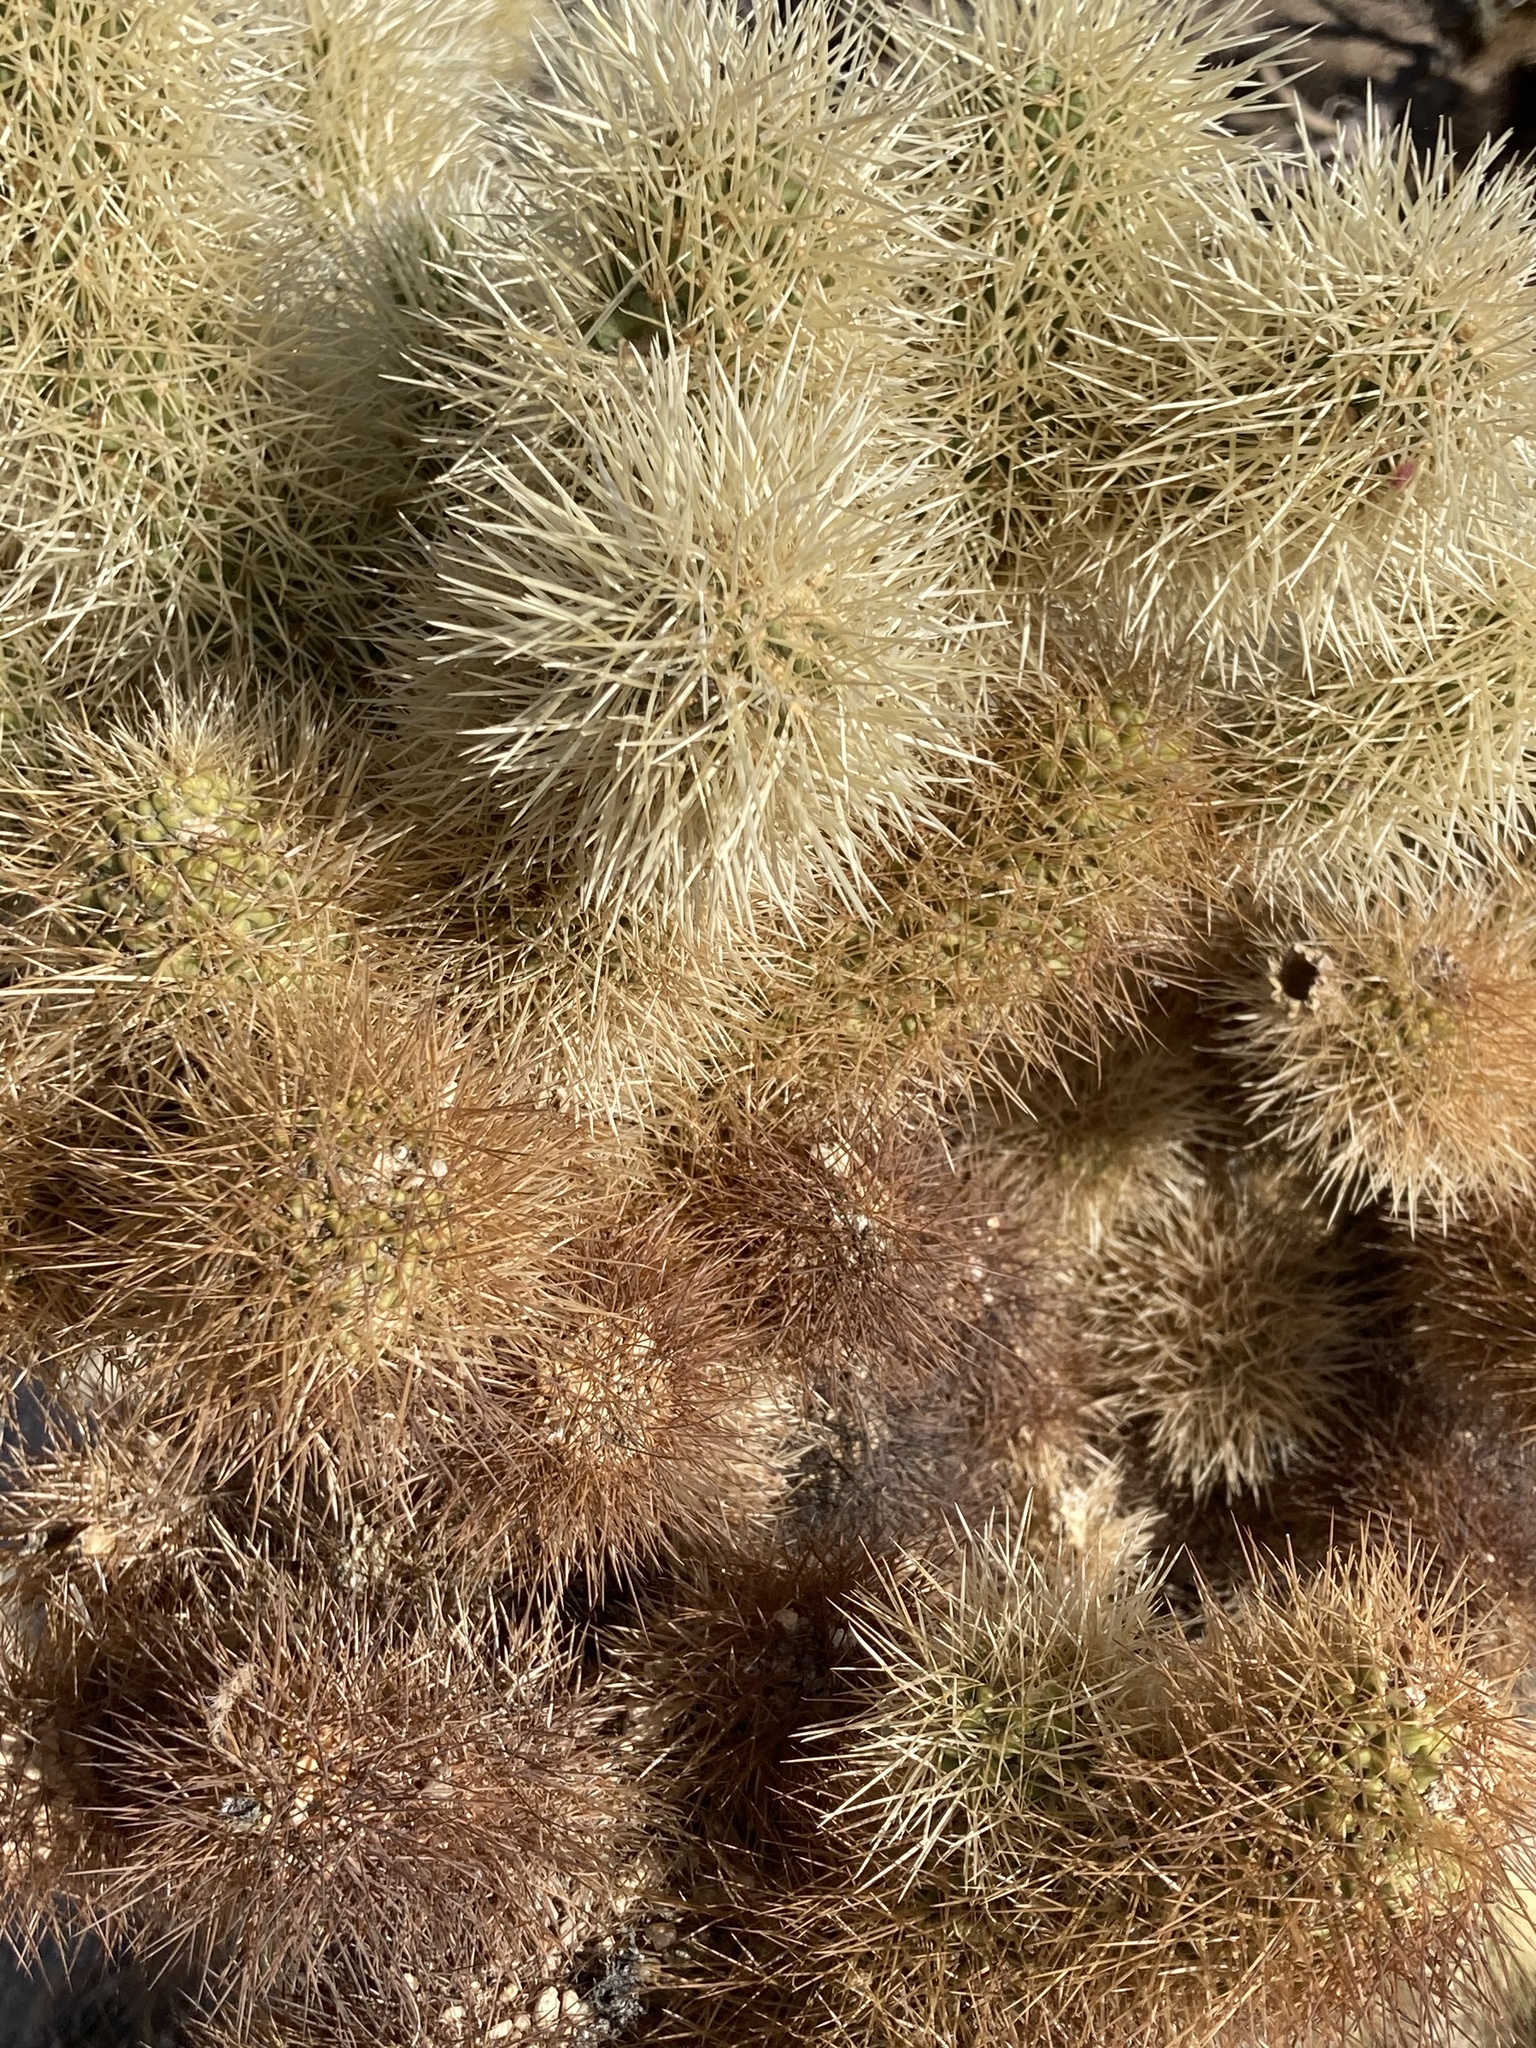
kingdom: Plantae
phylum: Tracheophyta
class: Magnoliopsida
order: Caryophyllales
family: Cactaceae
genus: Cylindropuntia
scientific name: Cylindropuntia fosbergii
